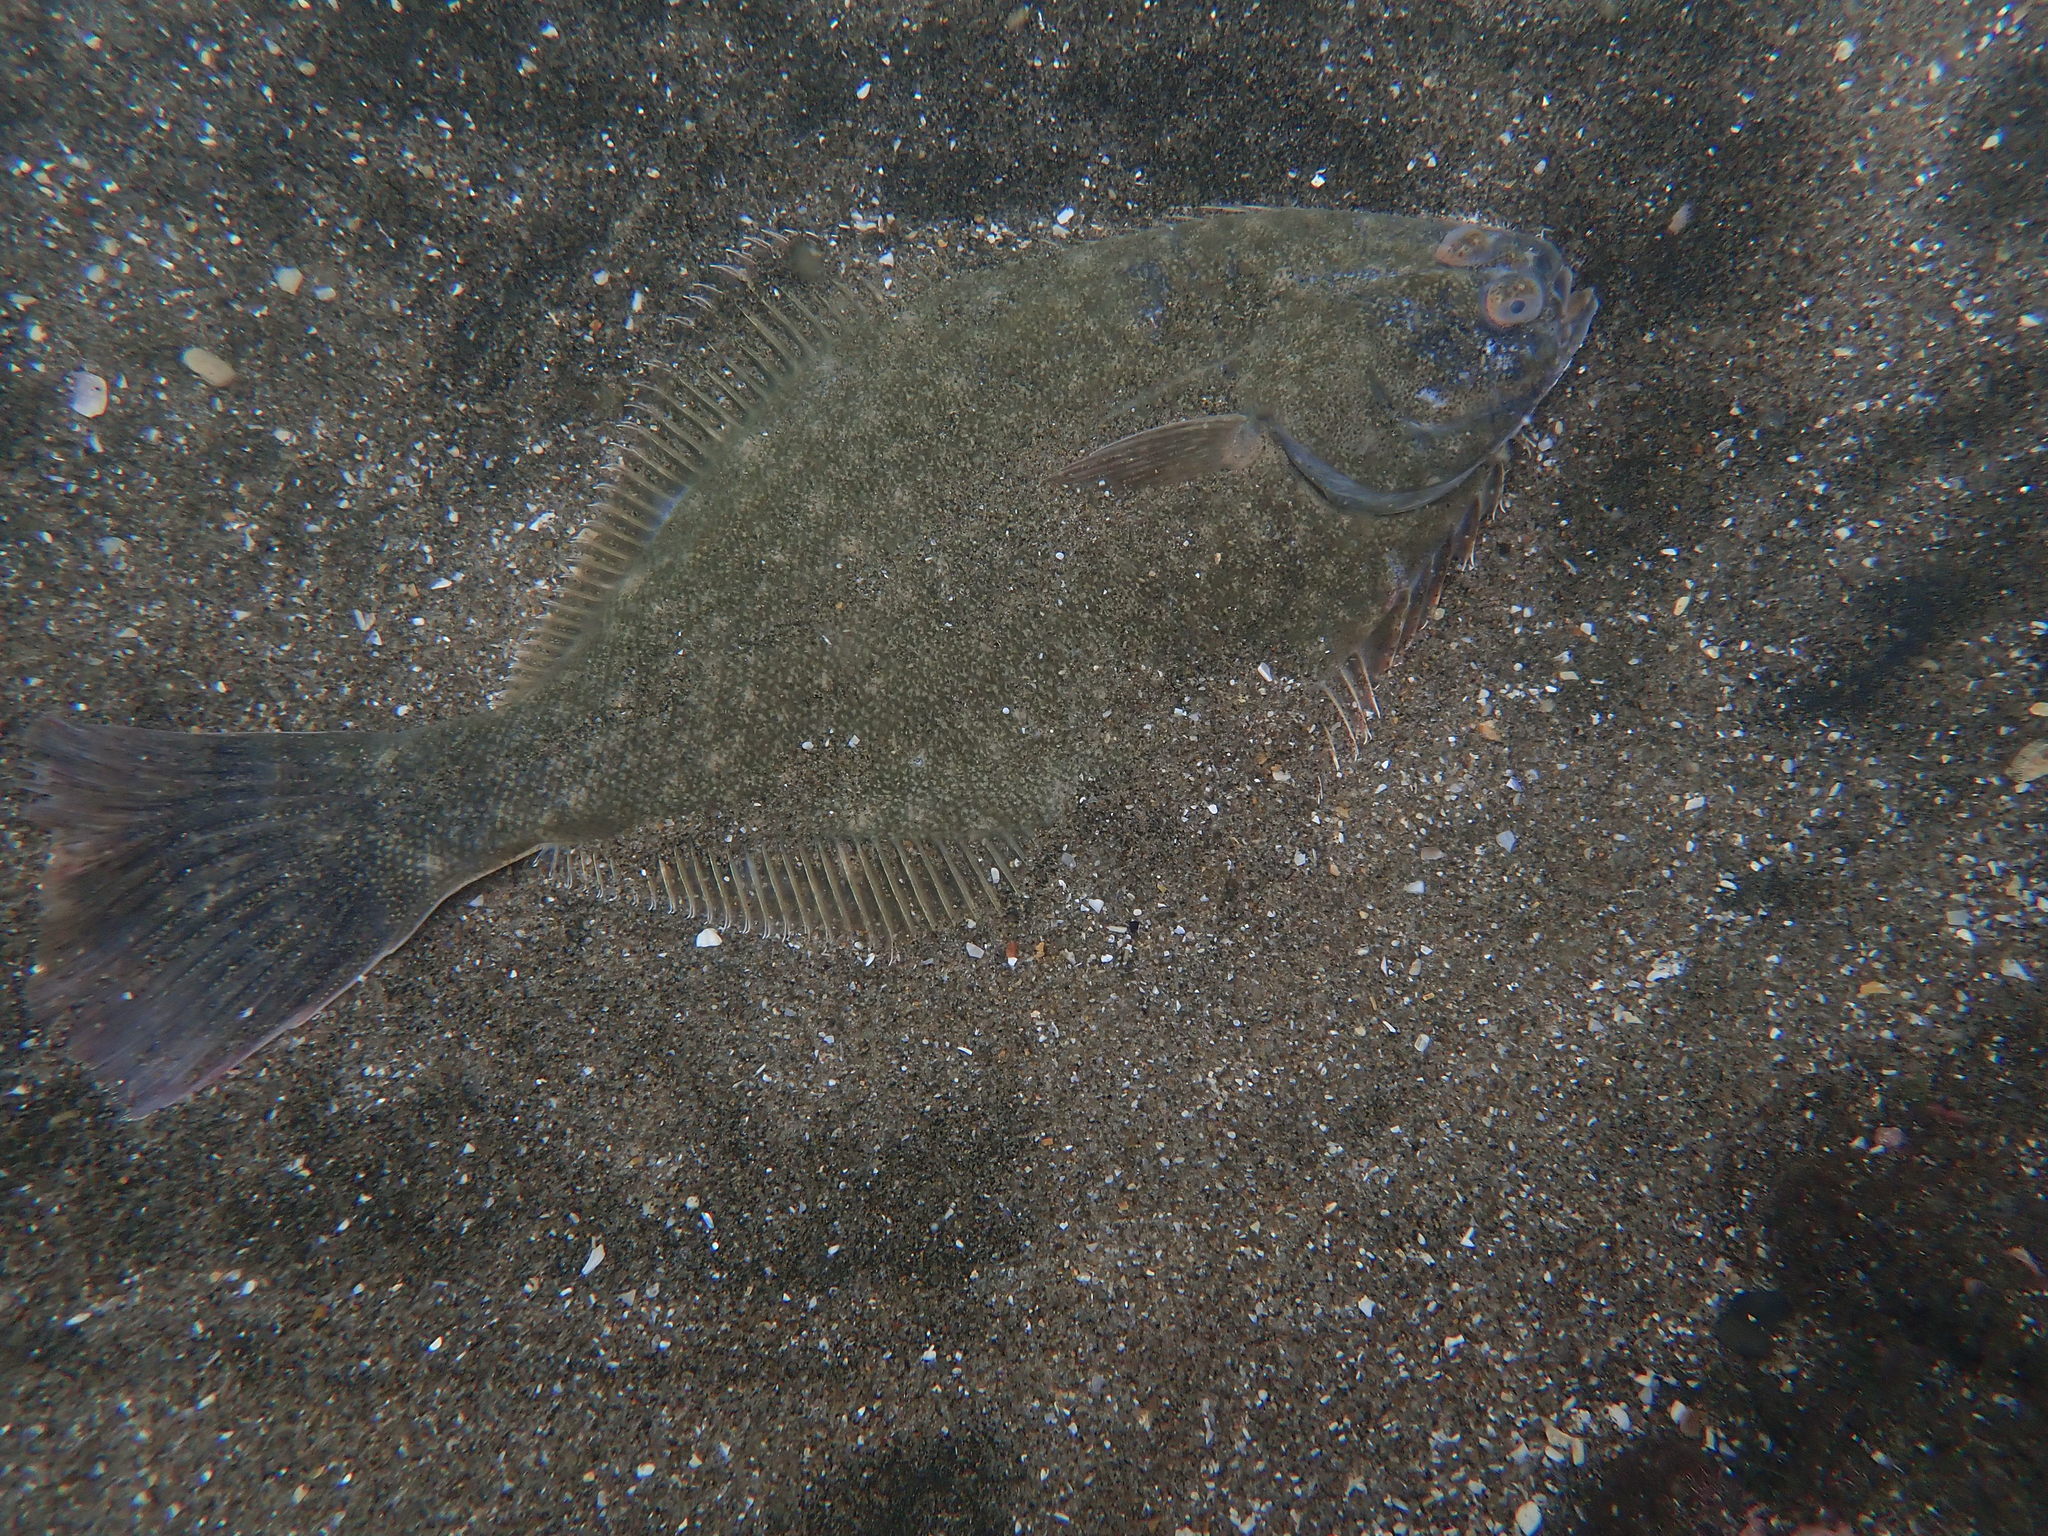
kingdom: Animalia
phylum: Chordata
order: Pleuronectiformes
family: Pleuronectidae
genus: Rhombosolea
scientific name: Rhombosolea plebeia
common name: Dab
